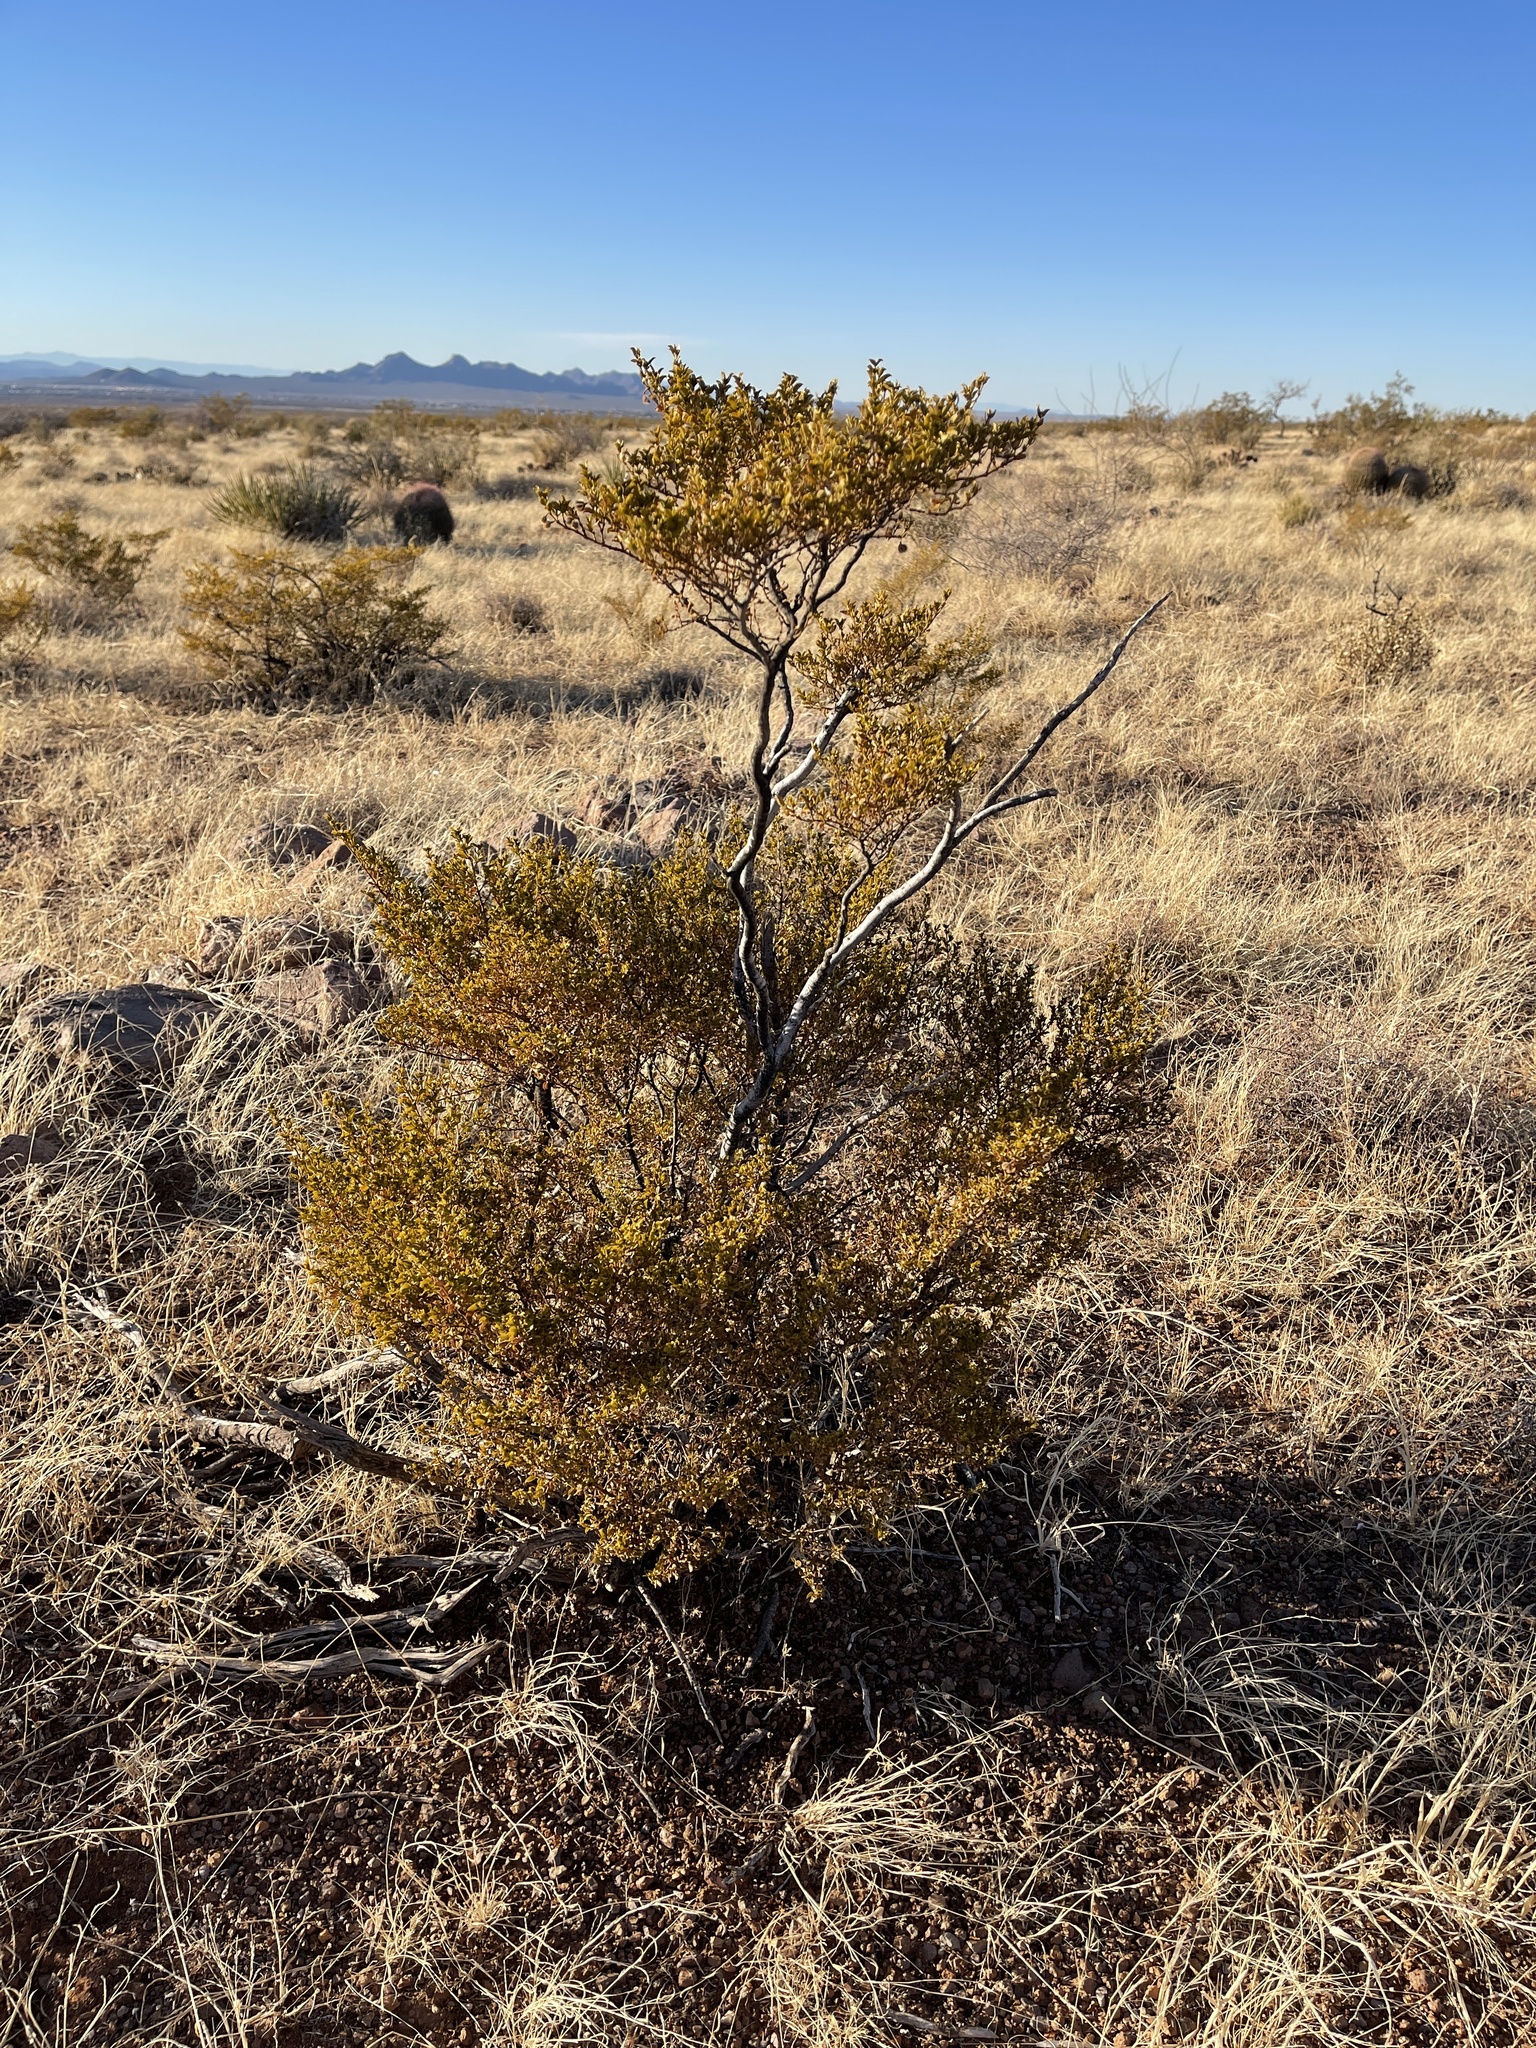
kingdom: Plantae
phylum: Tracheophyta
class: Magnoliopsida
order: Zygophyllales
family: Zygophyllaceae
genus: Larrea
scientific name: Larrea tridentata
